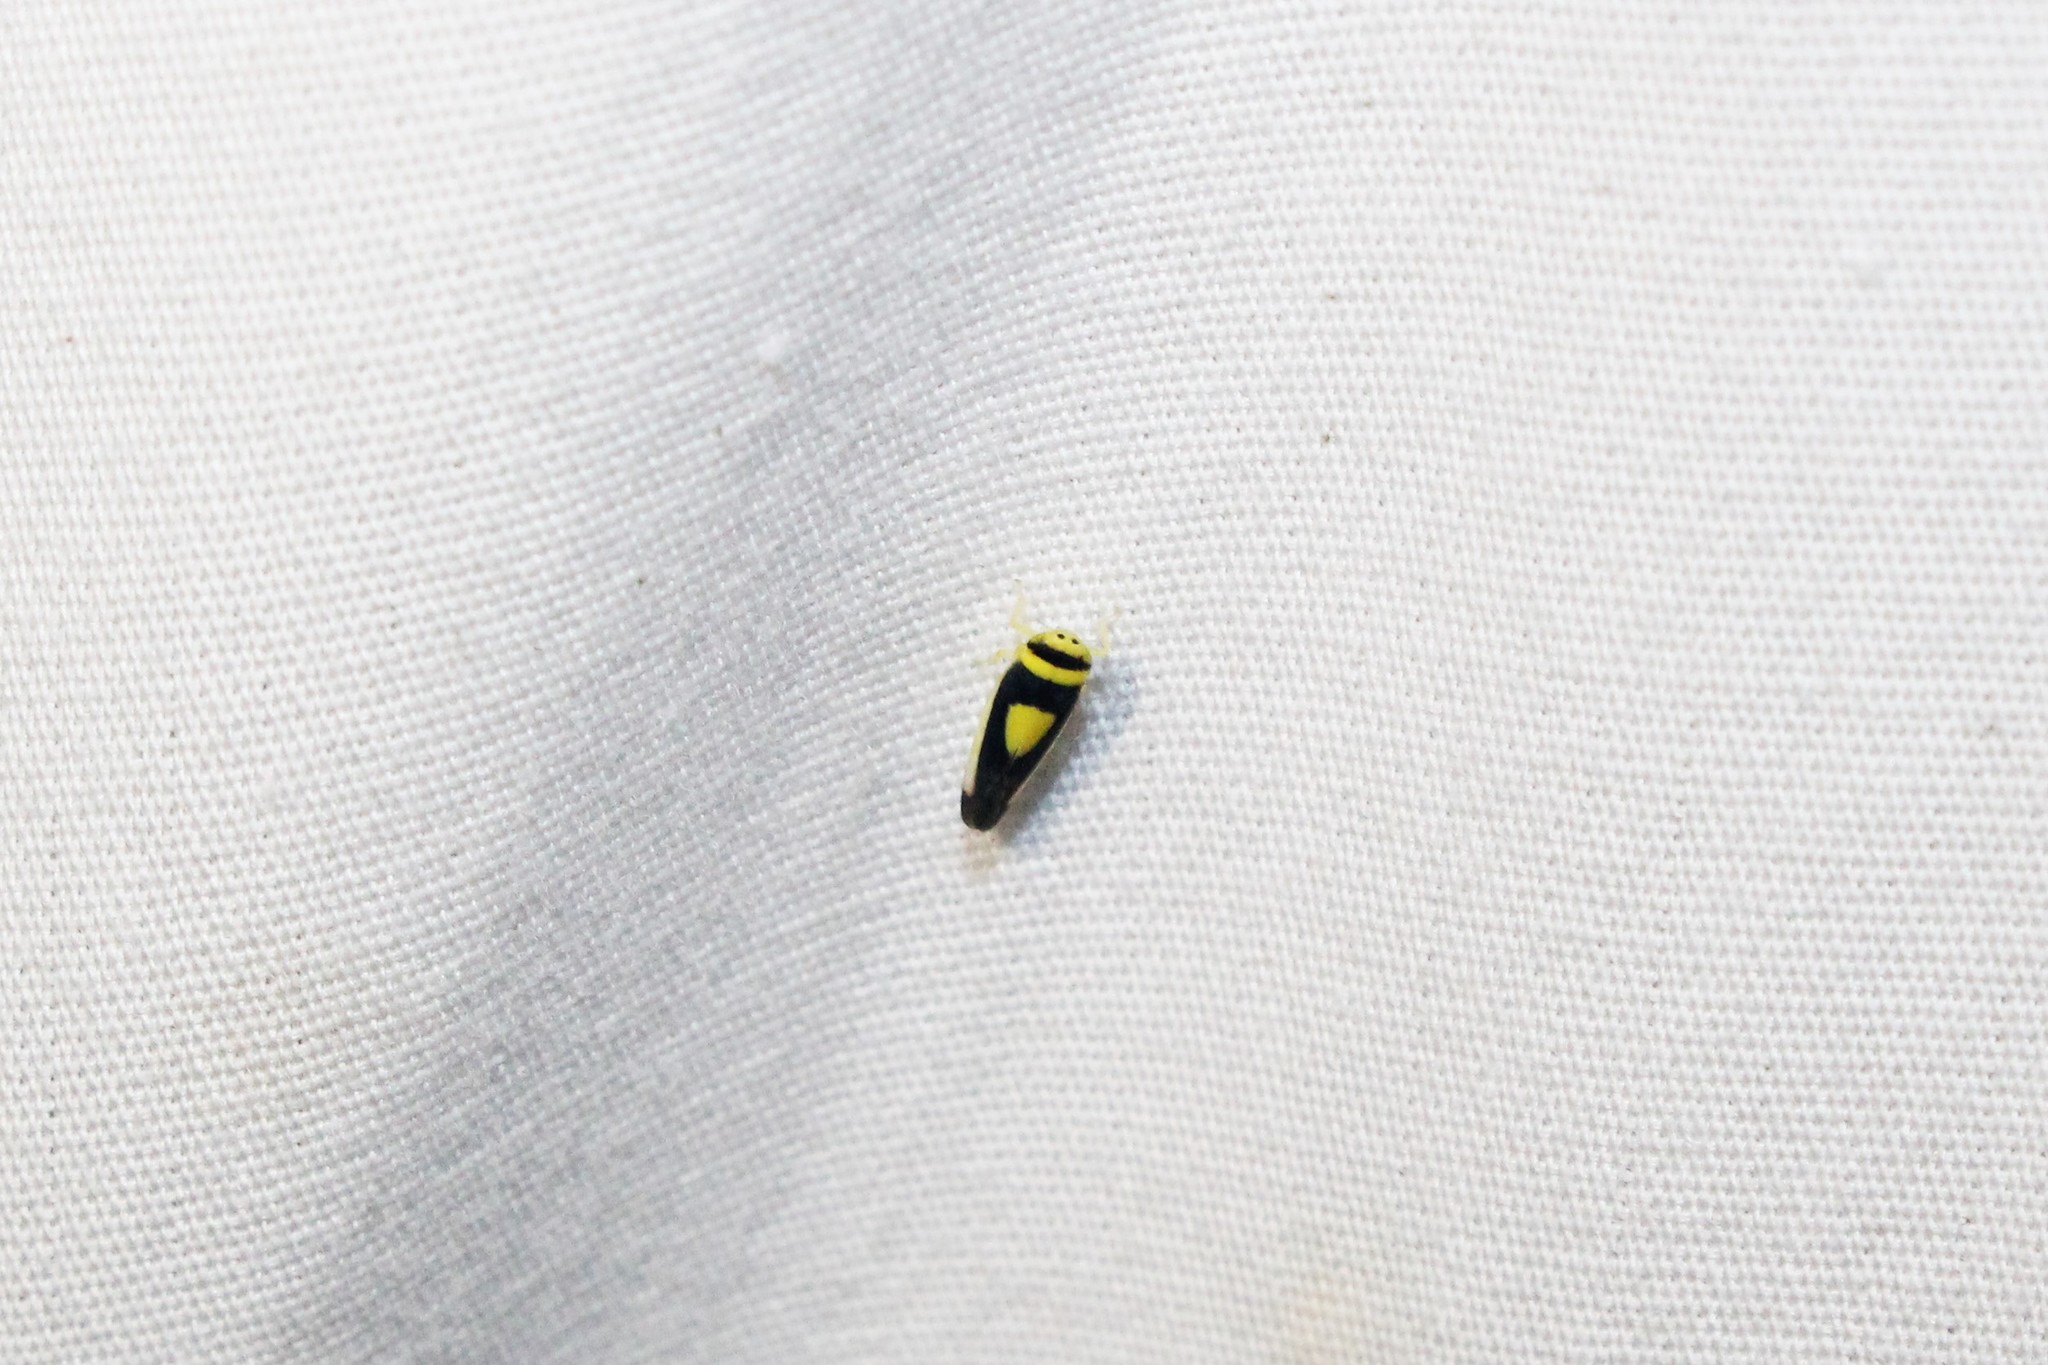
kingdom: Animalia
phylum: Arthropoda
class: Insecta
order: Hemiptera
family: Cicadellidae
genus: Colladonus
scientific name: Colladonus clitellarius
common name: The saddleback leafhopper
